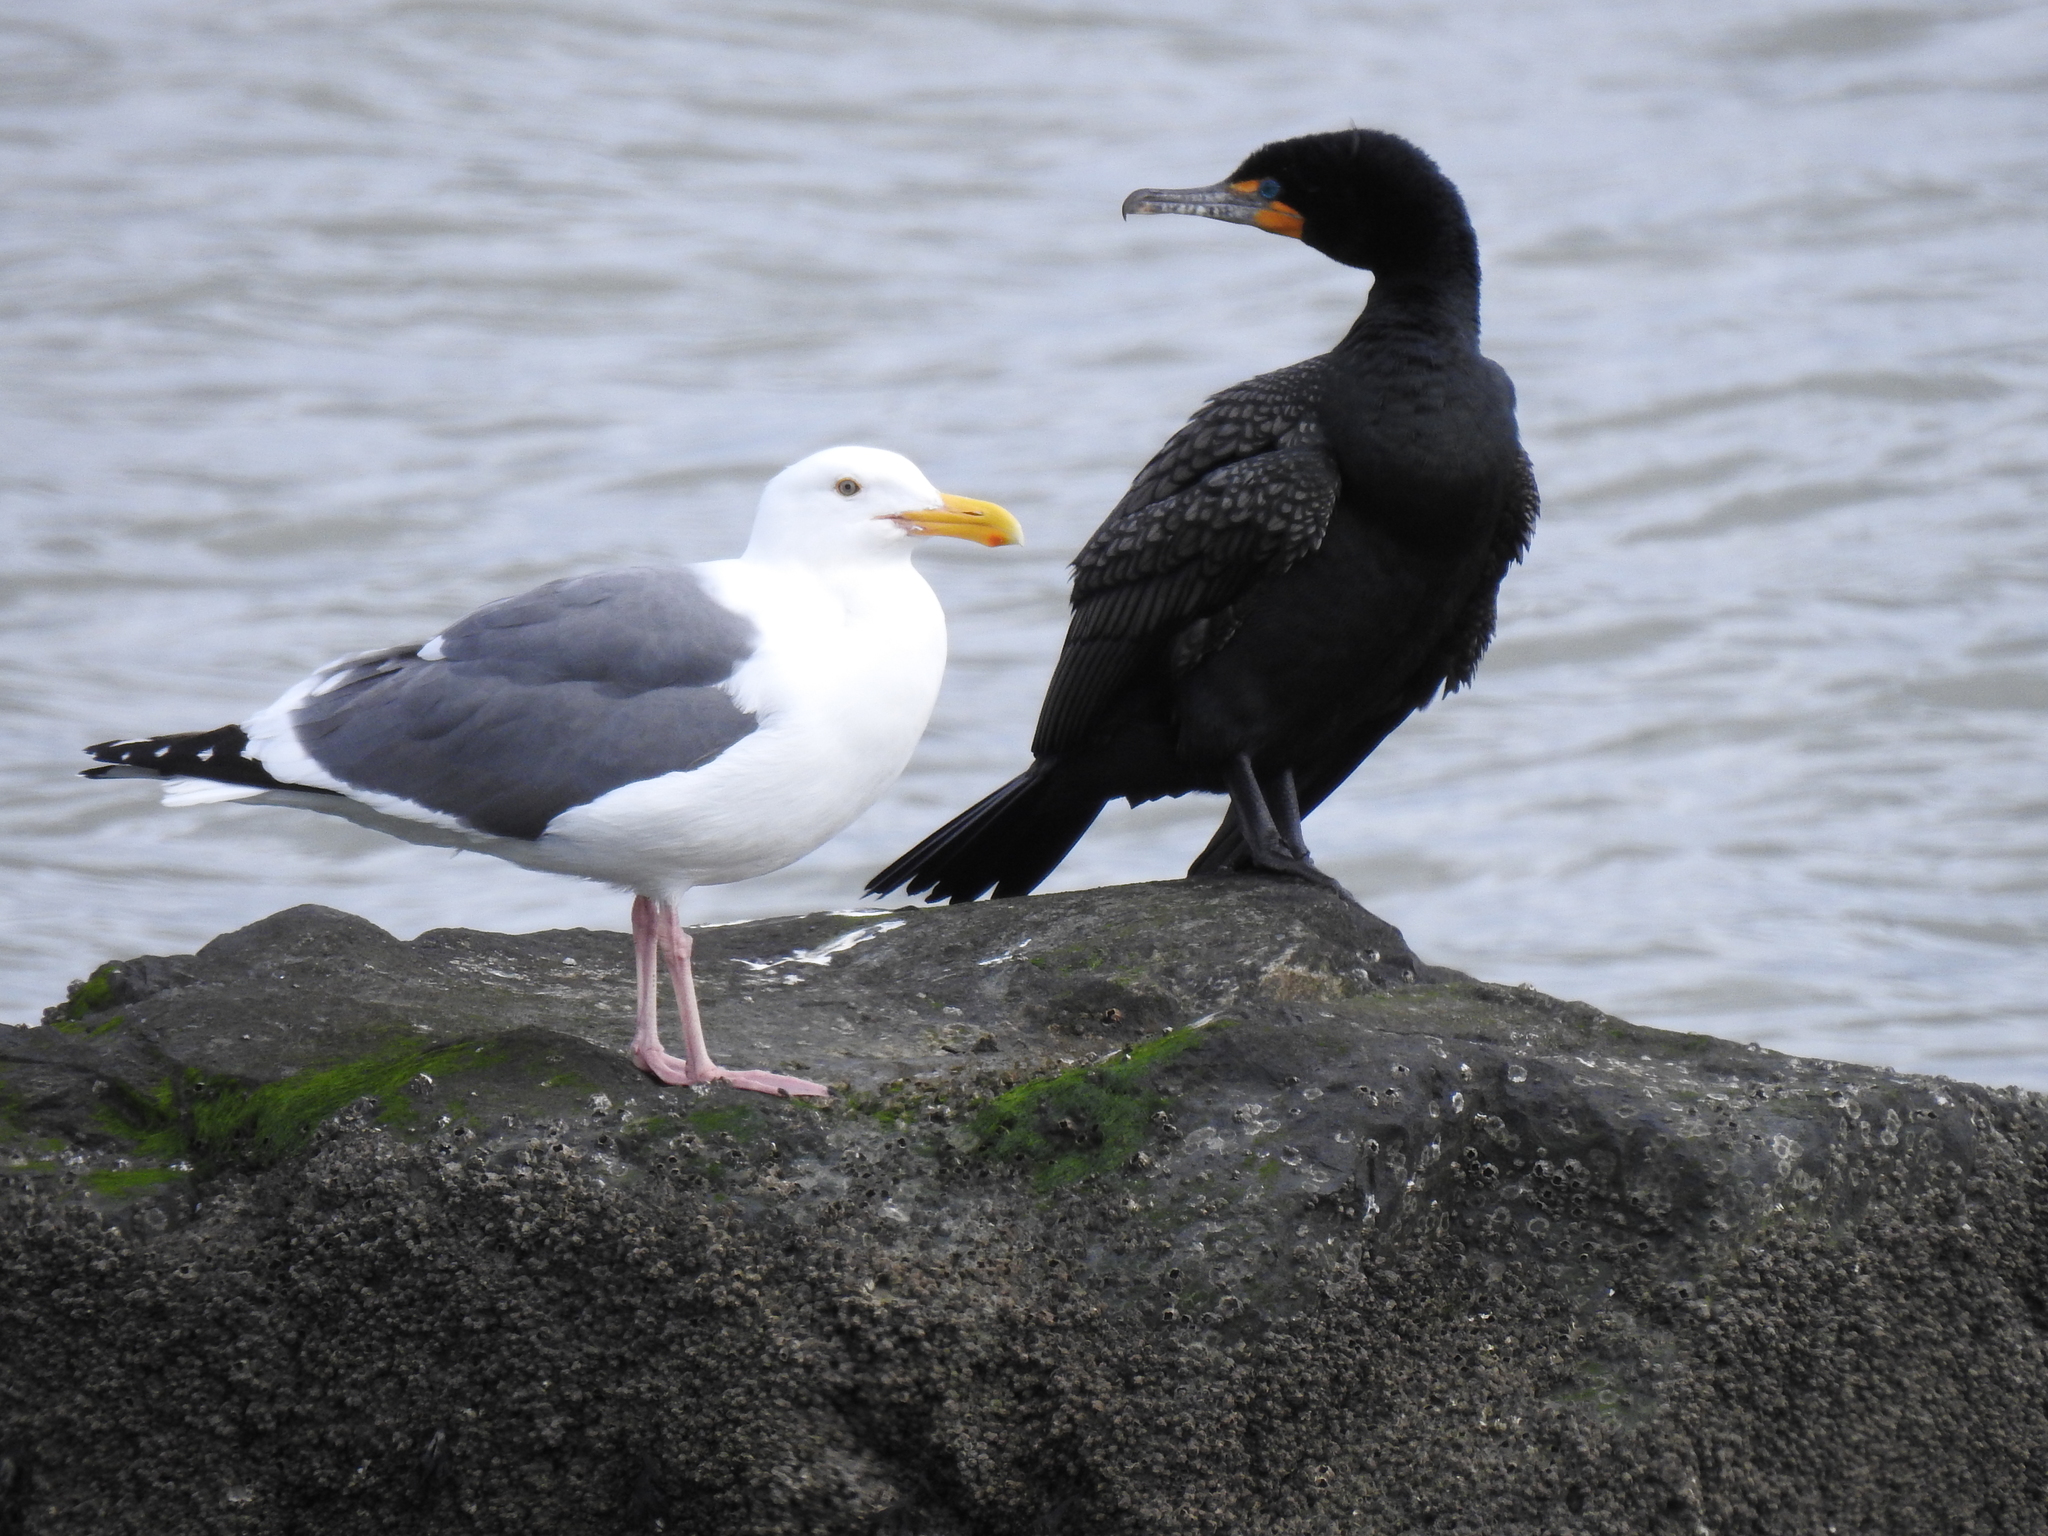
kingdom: Animalia
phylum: Chordata
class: Aves
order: Charadriiformes
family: Laridae
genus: Larus
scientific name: Larus occidentalis
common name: Western gull
